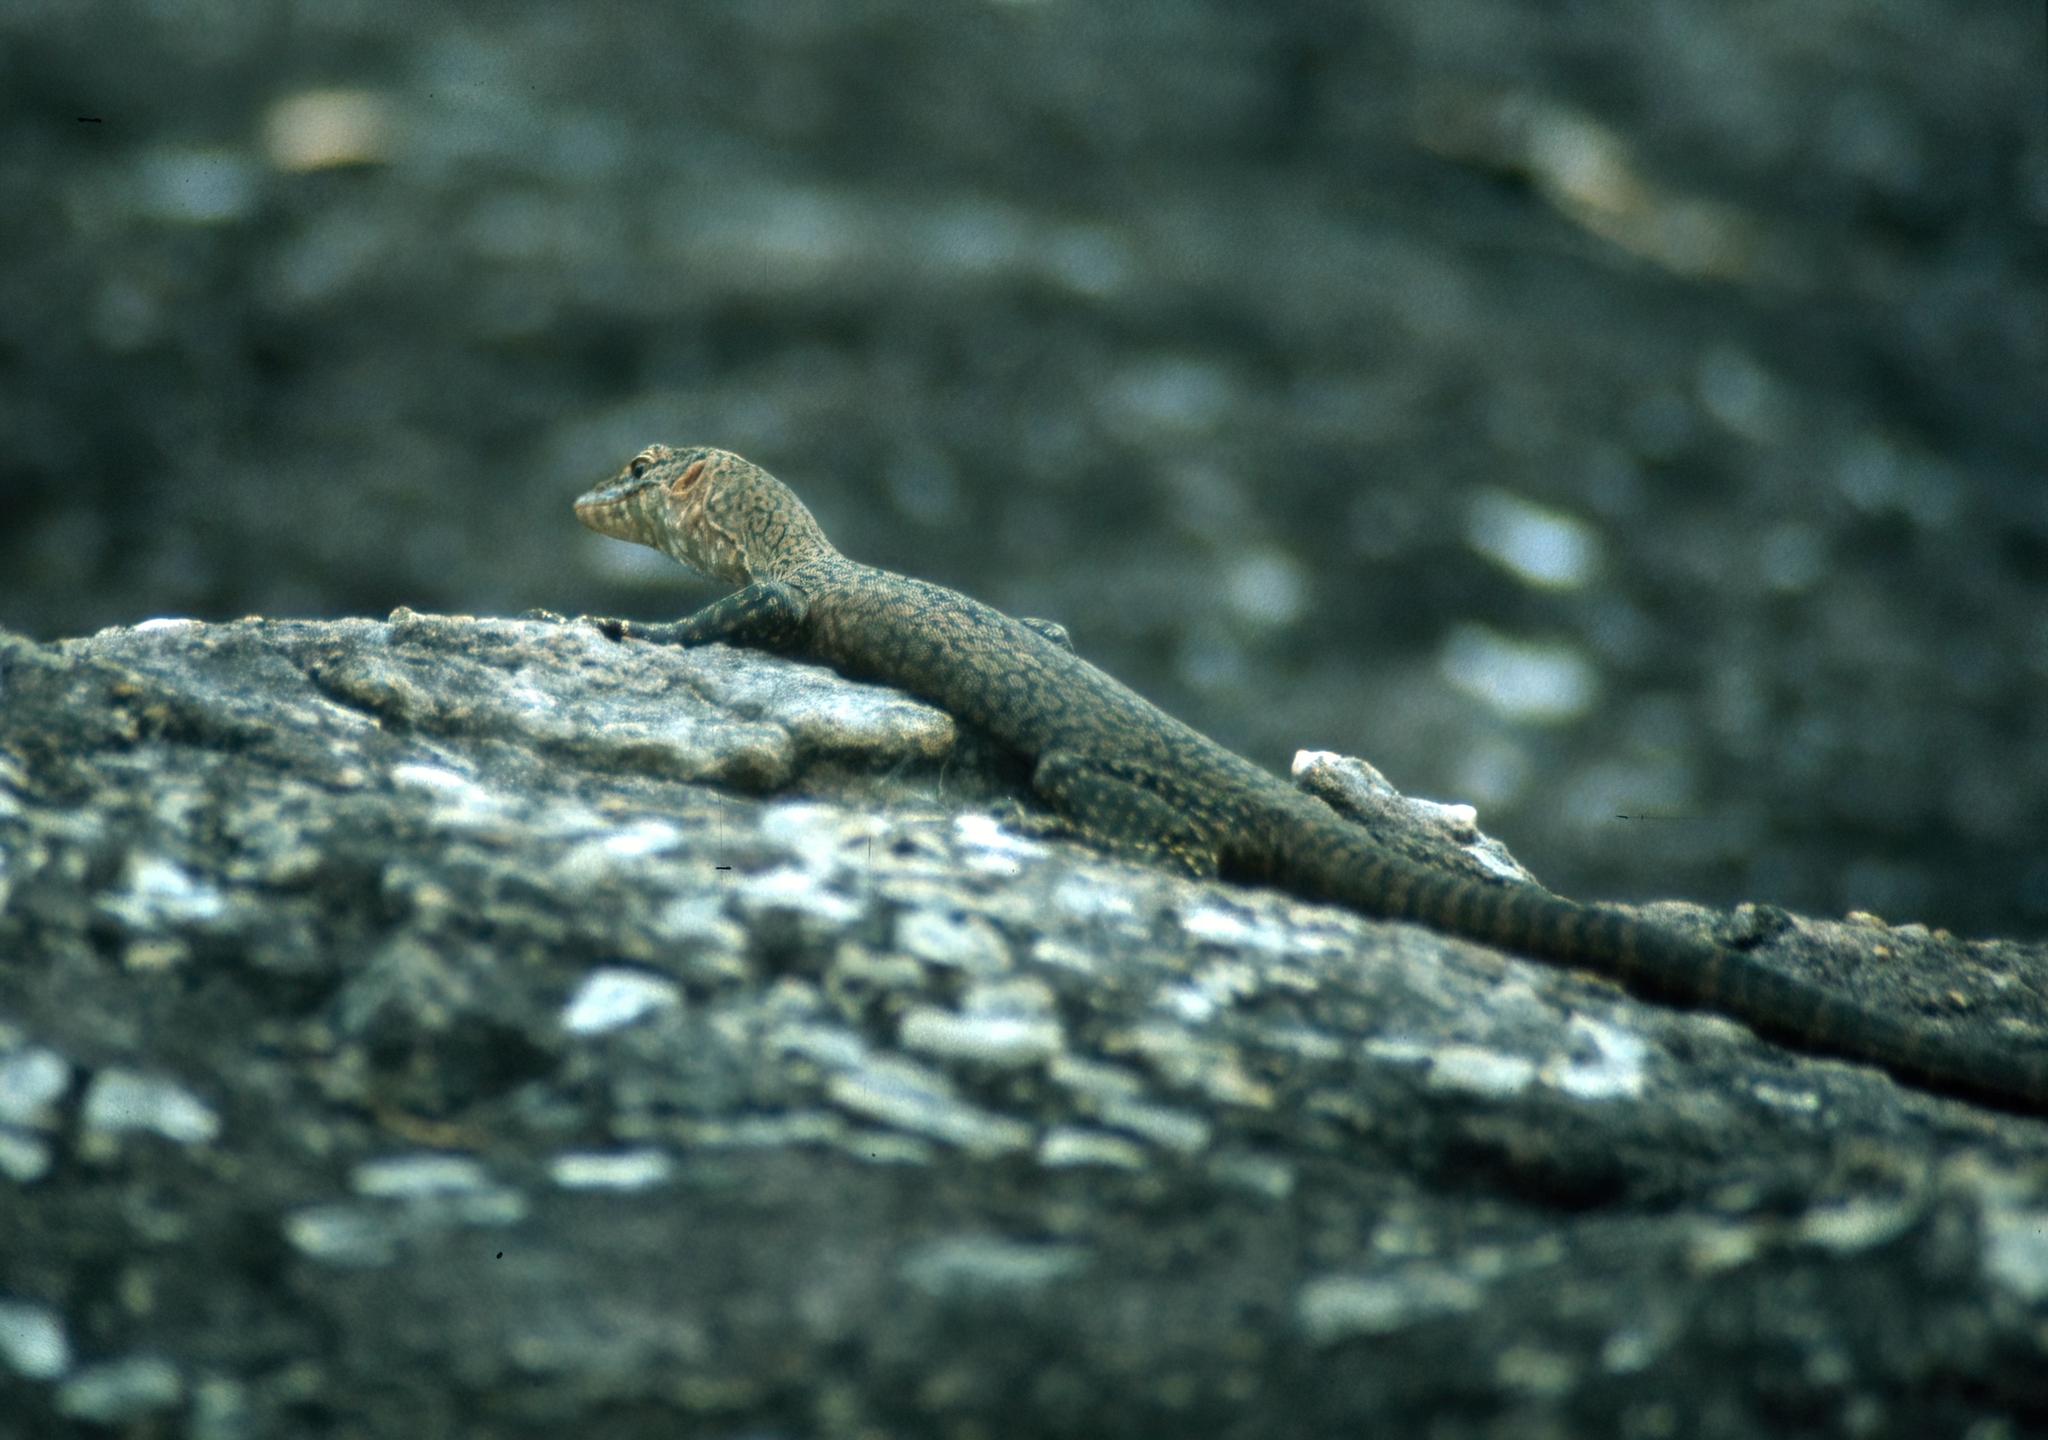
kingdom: Animalia
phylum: Chordata
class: Squamata
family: Varanidae
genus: Varanus
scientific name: Varanus glebopalma
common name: Black-palmed rock monitor
